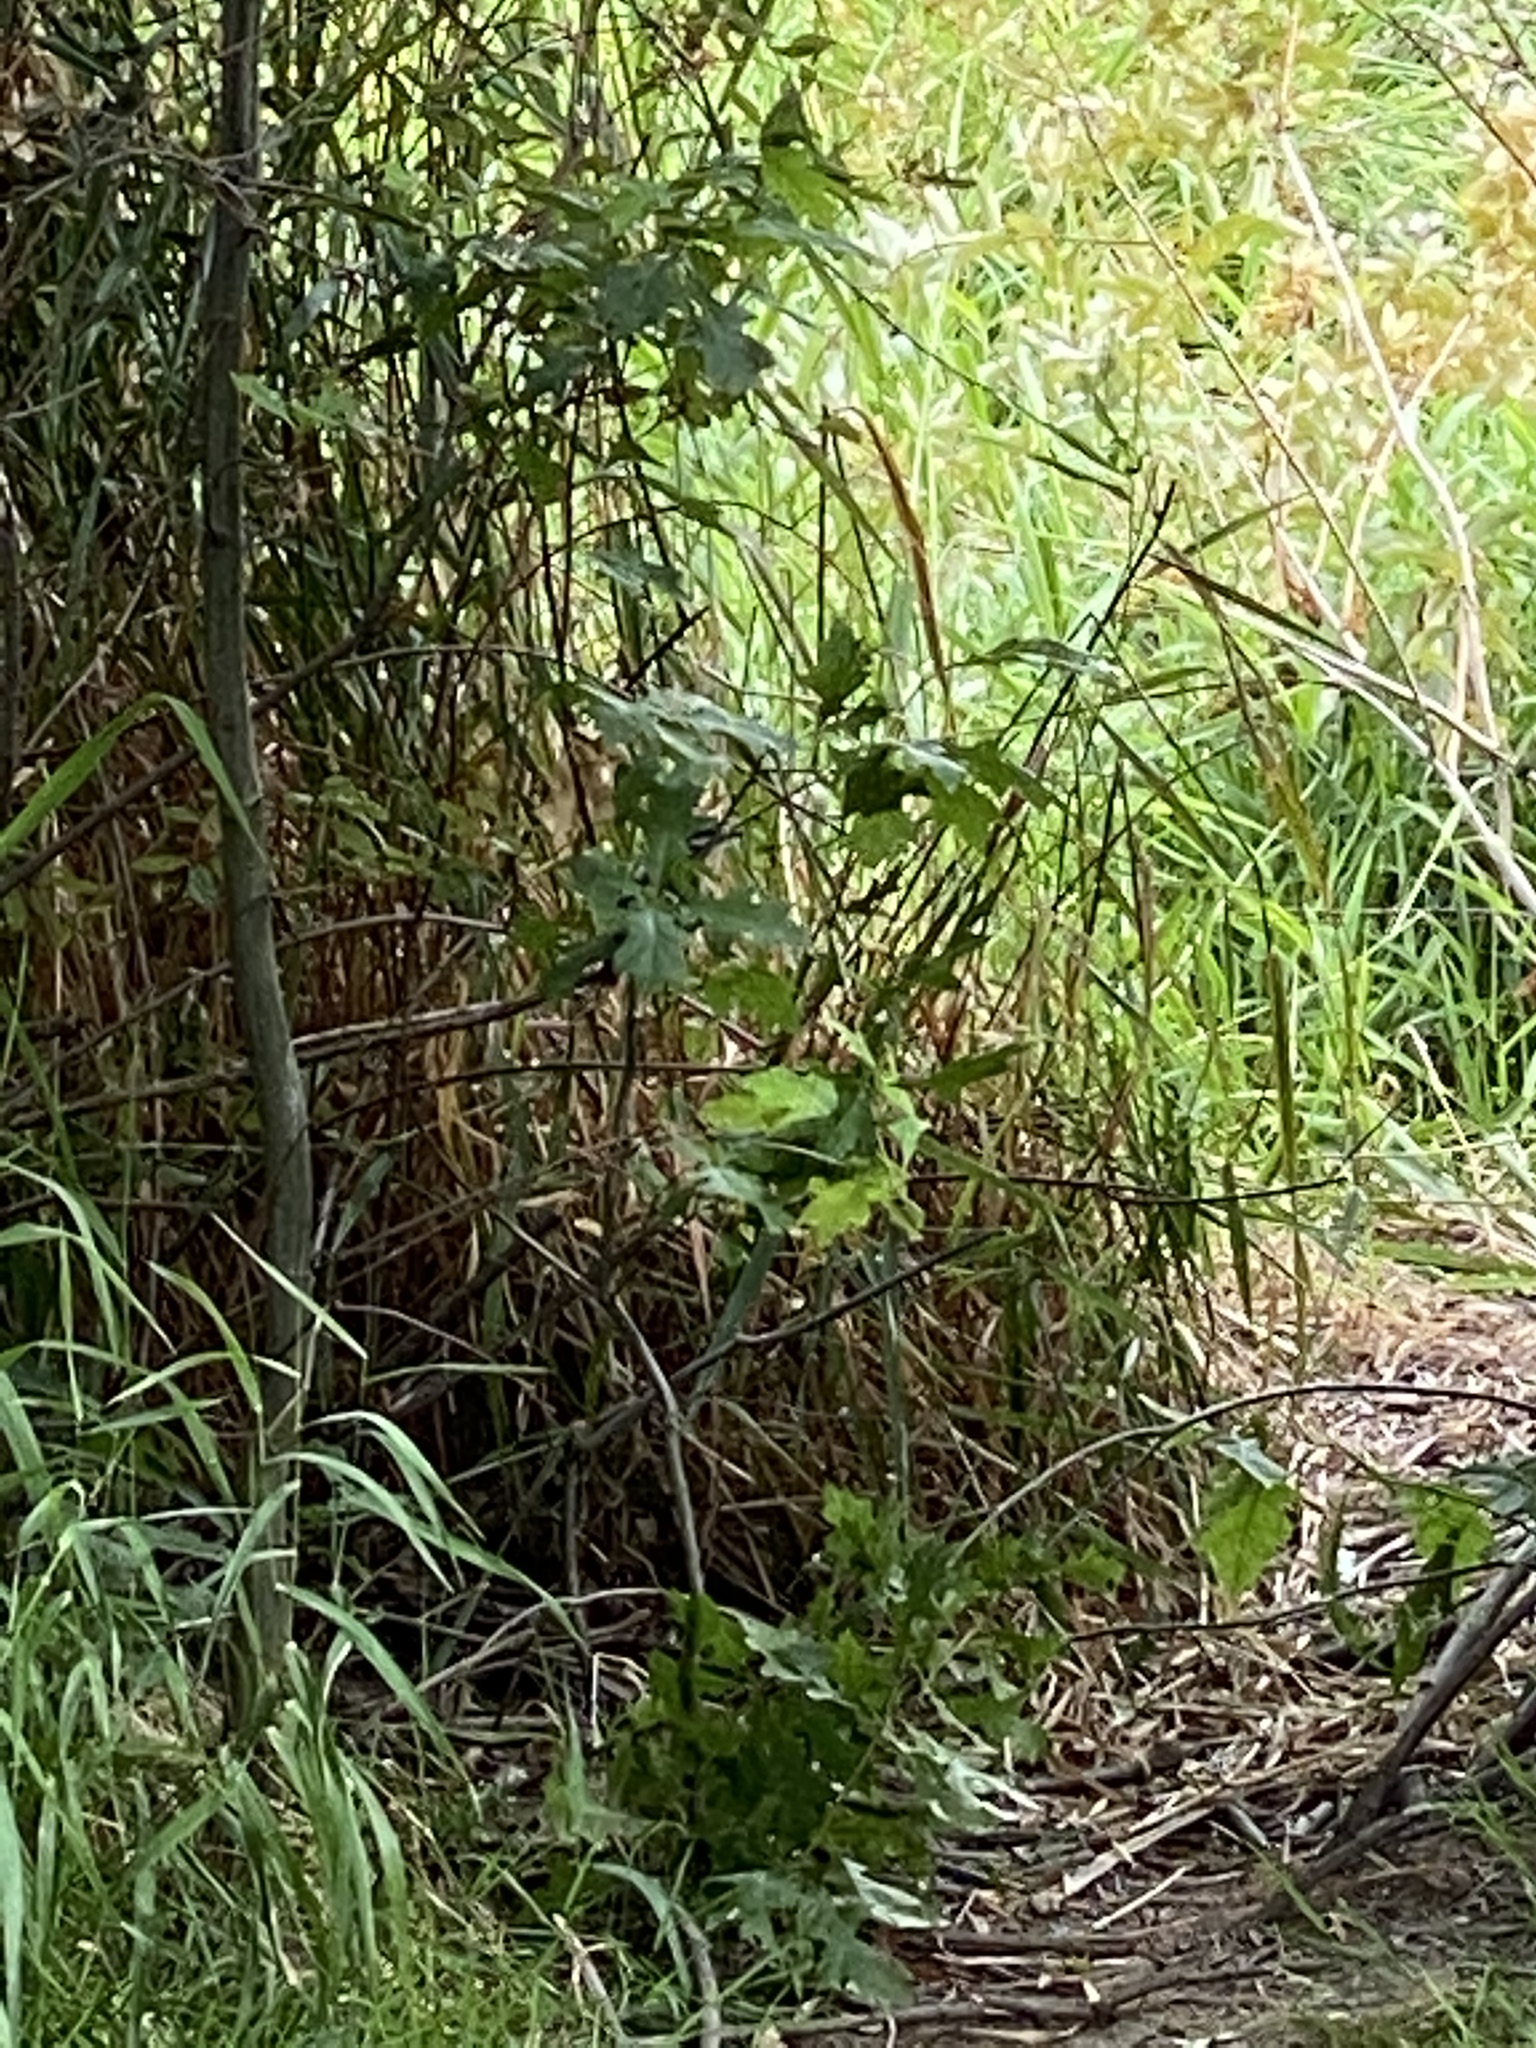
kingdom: Animalia
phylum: Chordata
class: Aves
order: Piciformes
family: Picidae
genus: Dryobates
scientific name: Dryobates pubescens
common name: Downy woodpecker
